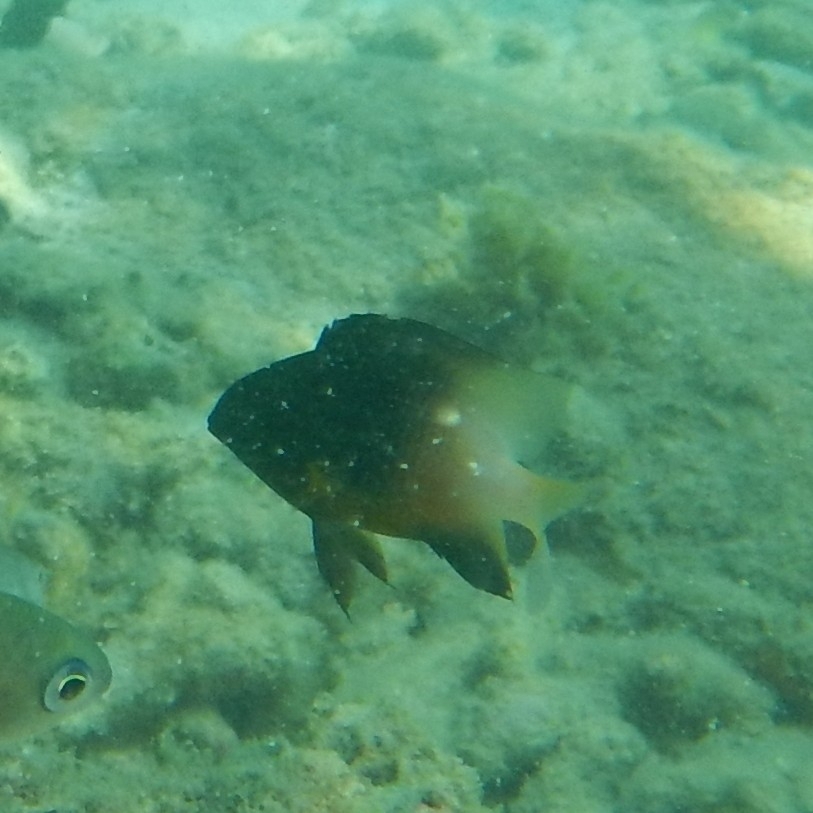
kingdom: Animalia
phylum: Chordata
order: Perciformes
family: Pomacentridae
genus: Stegastes
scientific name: Stegastes partitus
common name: Bicolor damselfish
